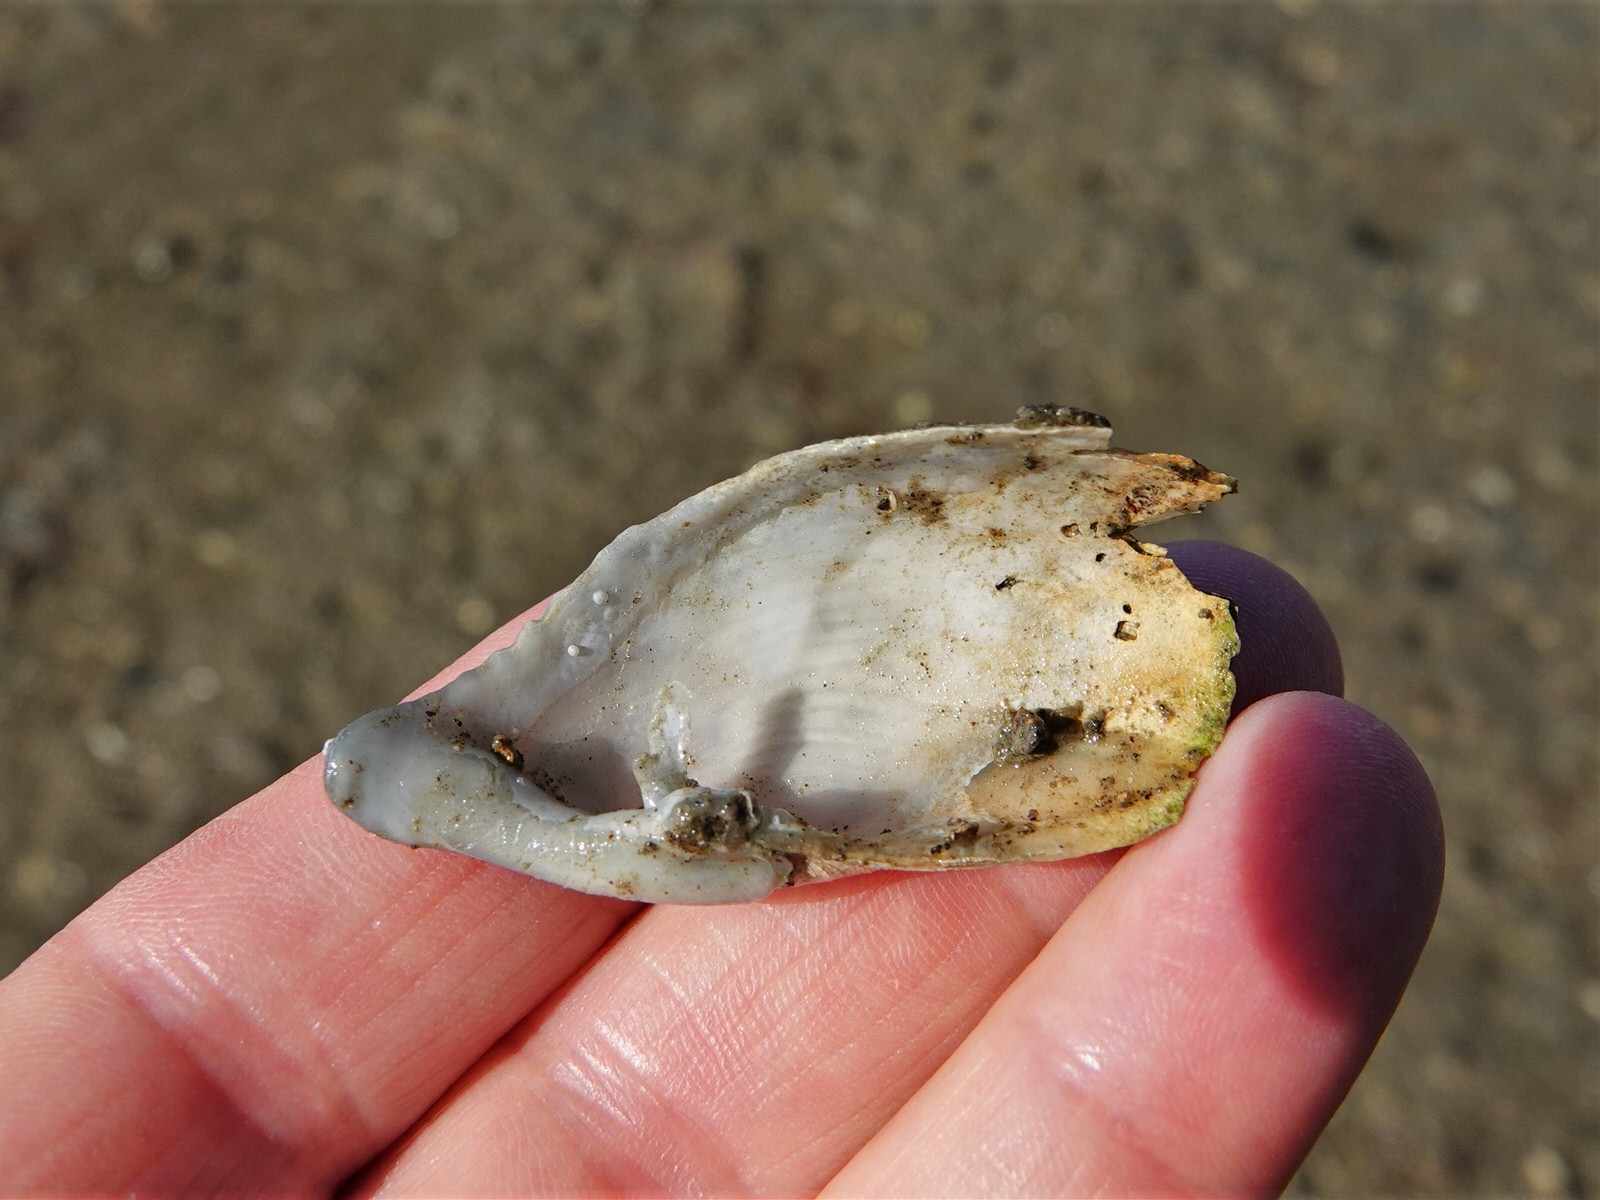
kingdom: Animalia
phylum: Mollusca
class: Bivalvia
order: Myida
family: Pholadidae
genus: Barnea
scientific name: Barnea similis
